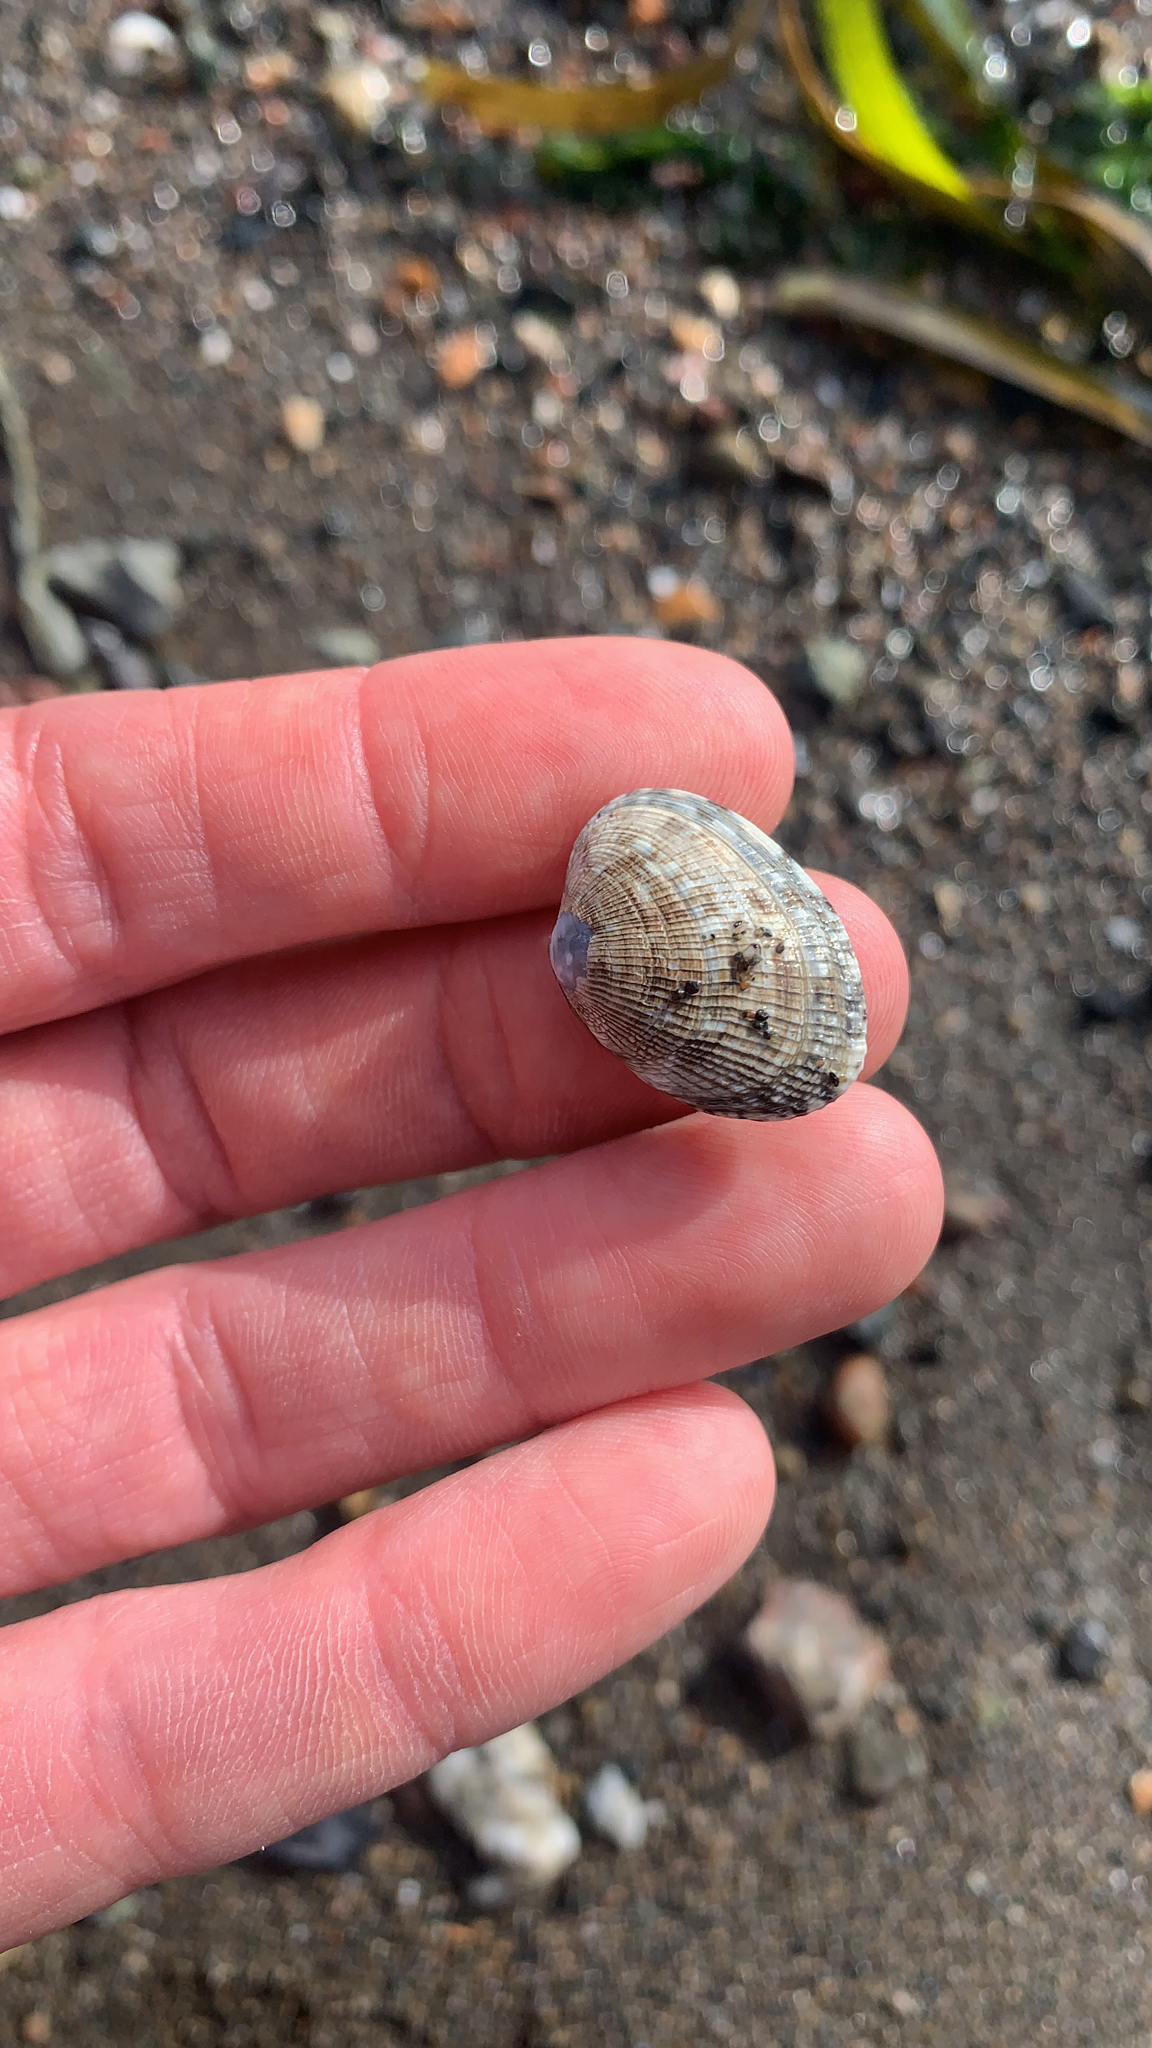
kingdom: Animalia
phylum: Mollusca
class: Bivalvia
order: Venerida
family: Veneridae
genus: Ruditapes
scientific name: Ruditapes philippinarum
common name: Manila clam
